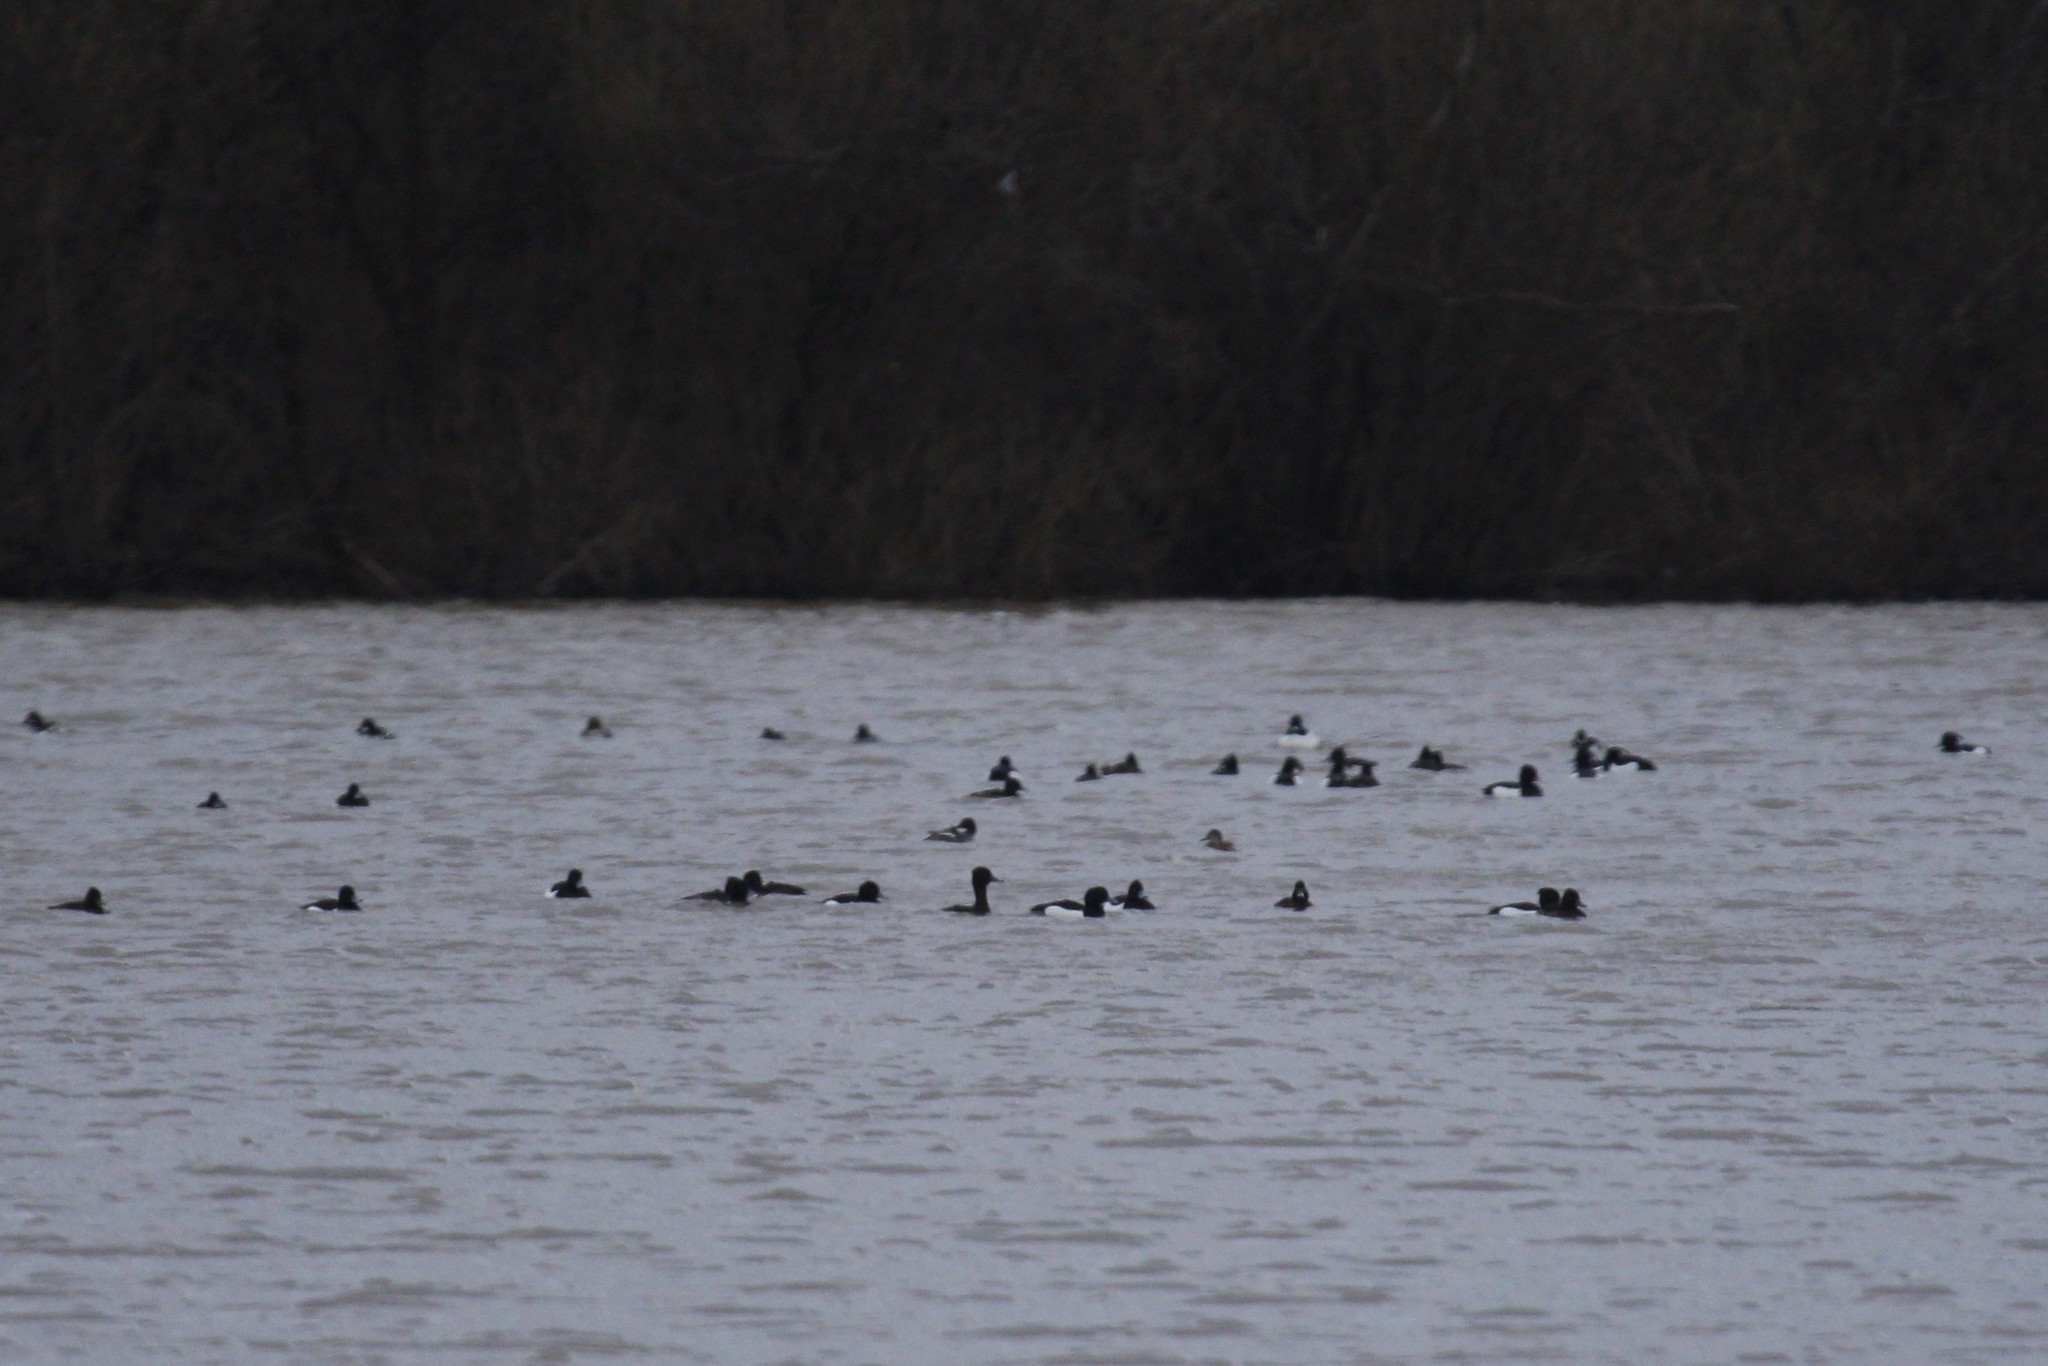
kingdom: Animalia
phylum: Chordata
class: Aves
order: Anseriformes
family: Anatidae
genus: Aythya
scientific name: Aythya fuligula
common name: Tufted duck
